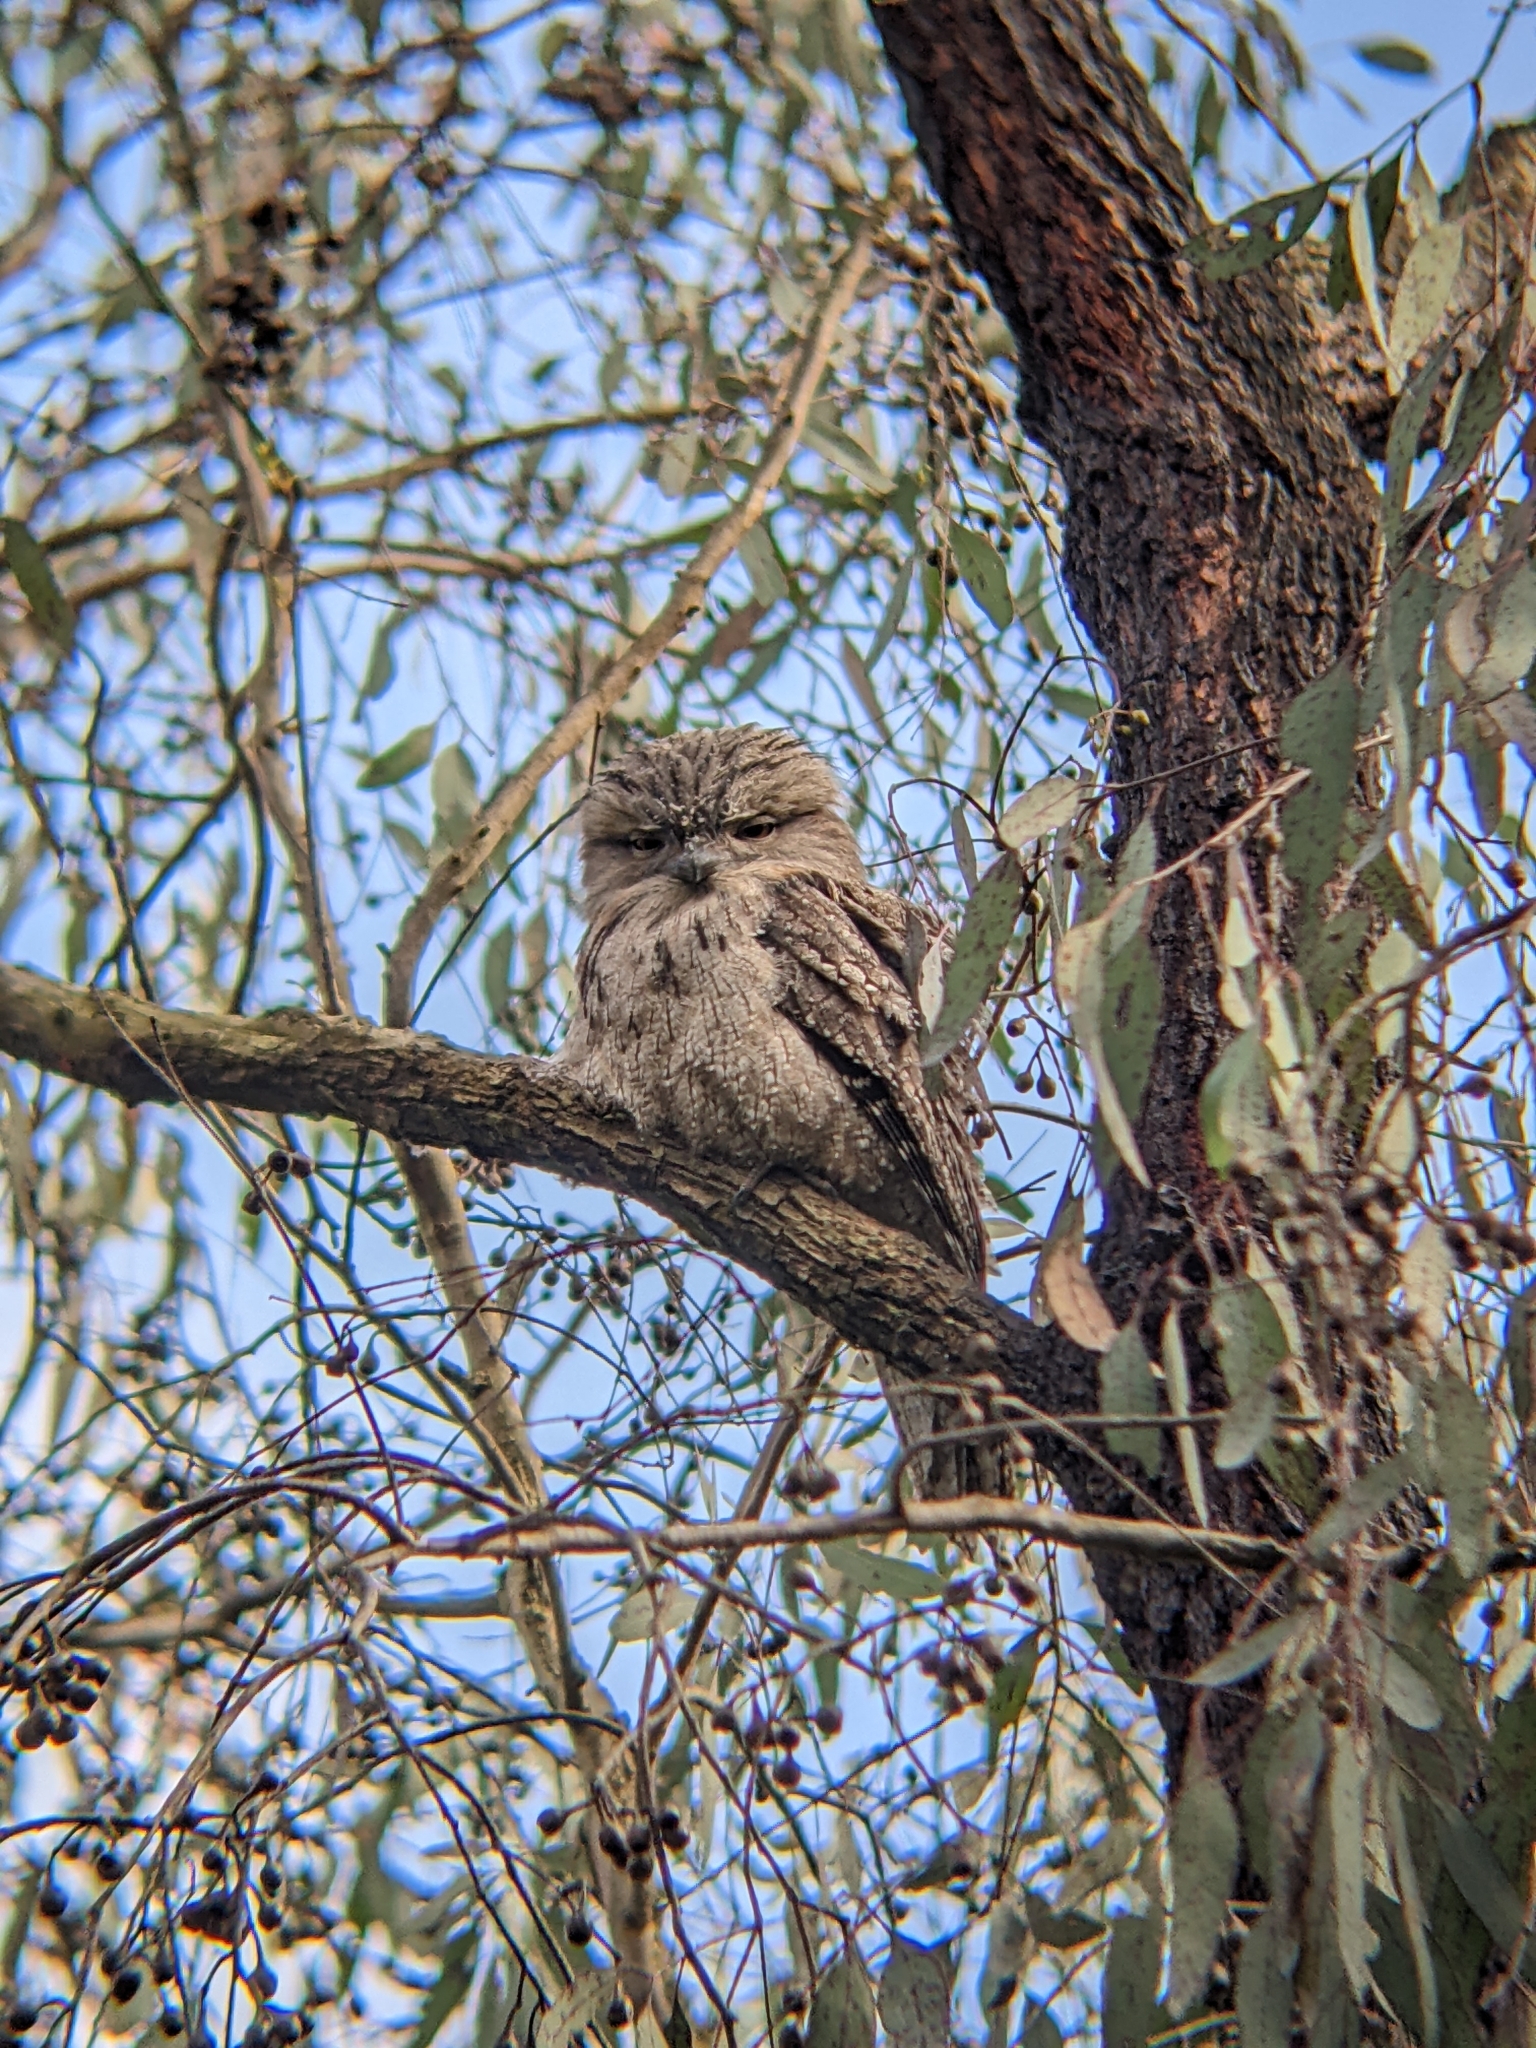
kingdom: Animalia
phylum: Chordata
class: Aves
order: Caprimulgiformes
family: Podargidae
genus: Podargus
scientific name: Podargus strigoides
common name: Tawny frogmouth
